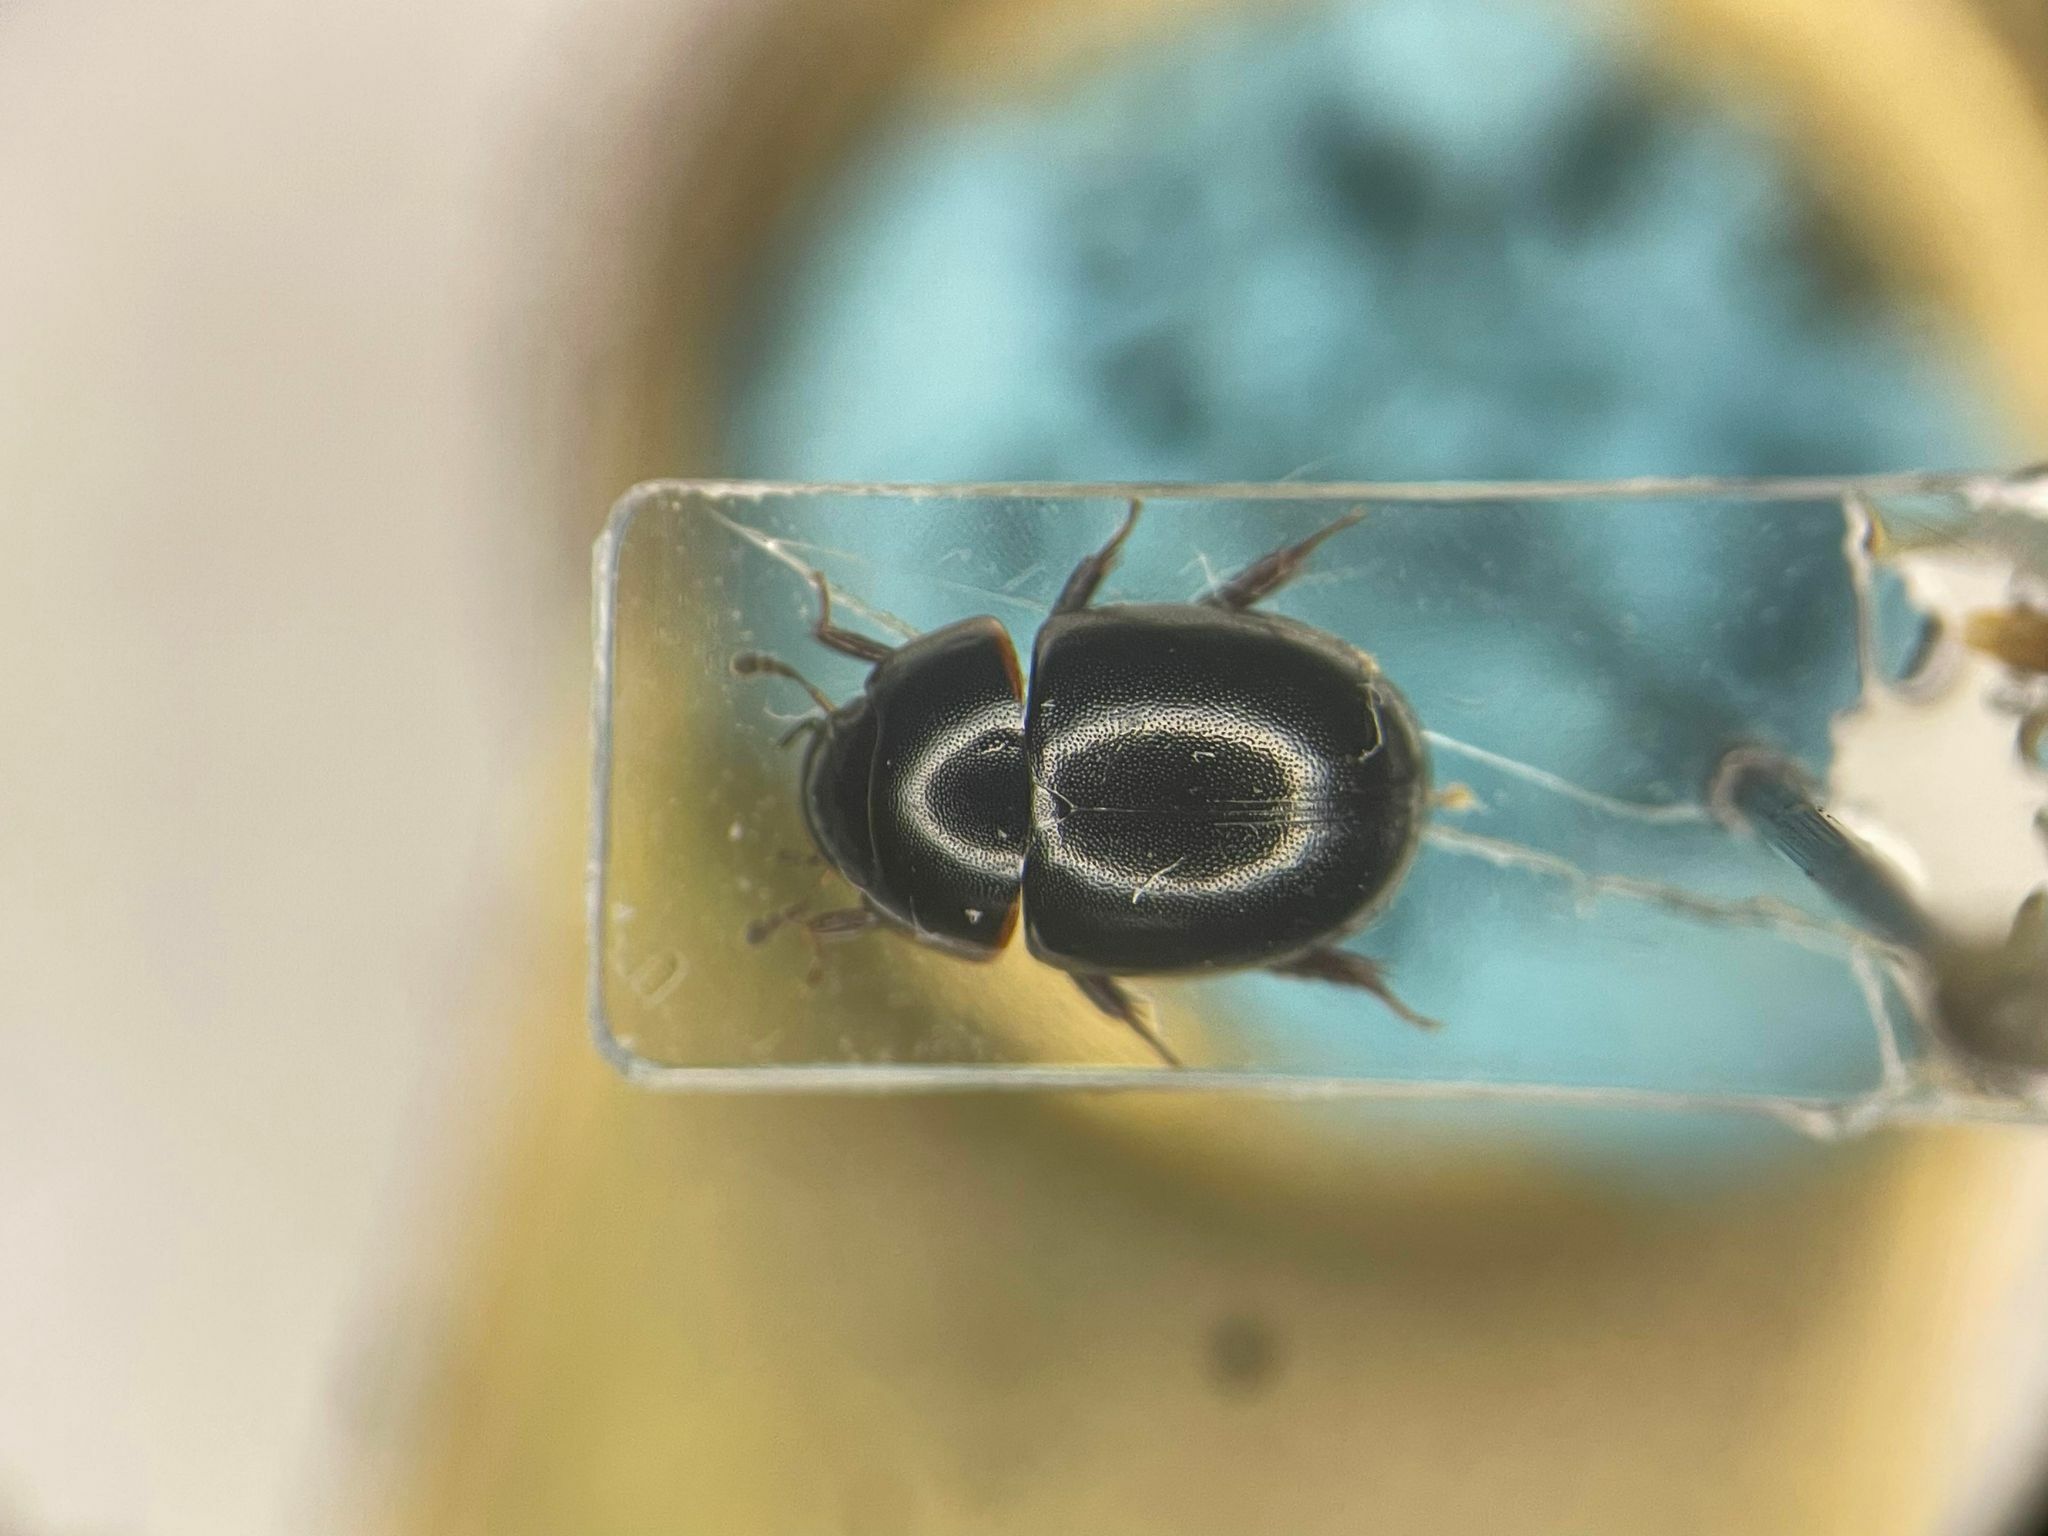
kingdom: Animalia
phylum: Arthropoda
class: Insecta
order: Coleoptera
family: Hydrophilidae
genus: Coelostoma
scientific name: Coelostoma orbiculare
